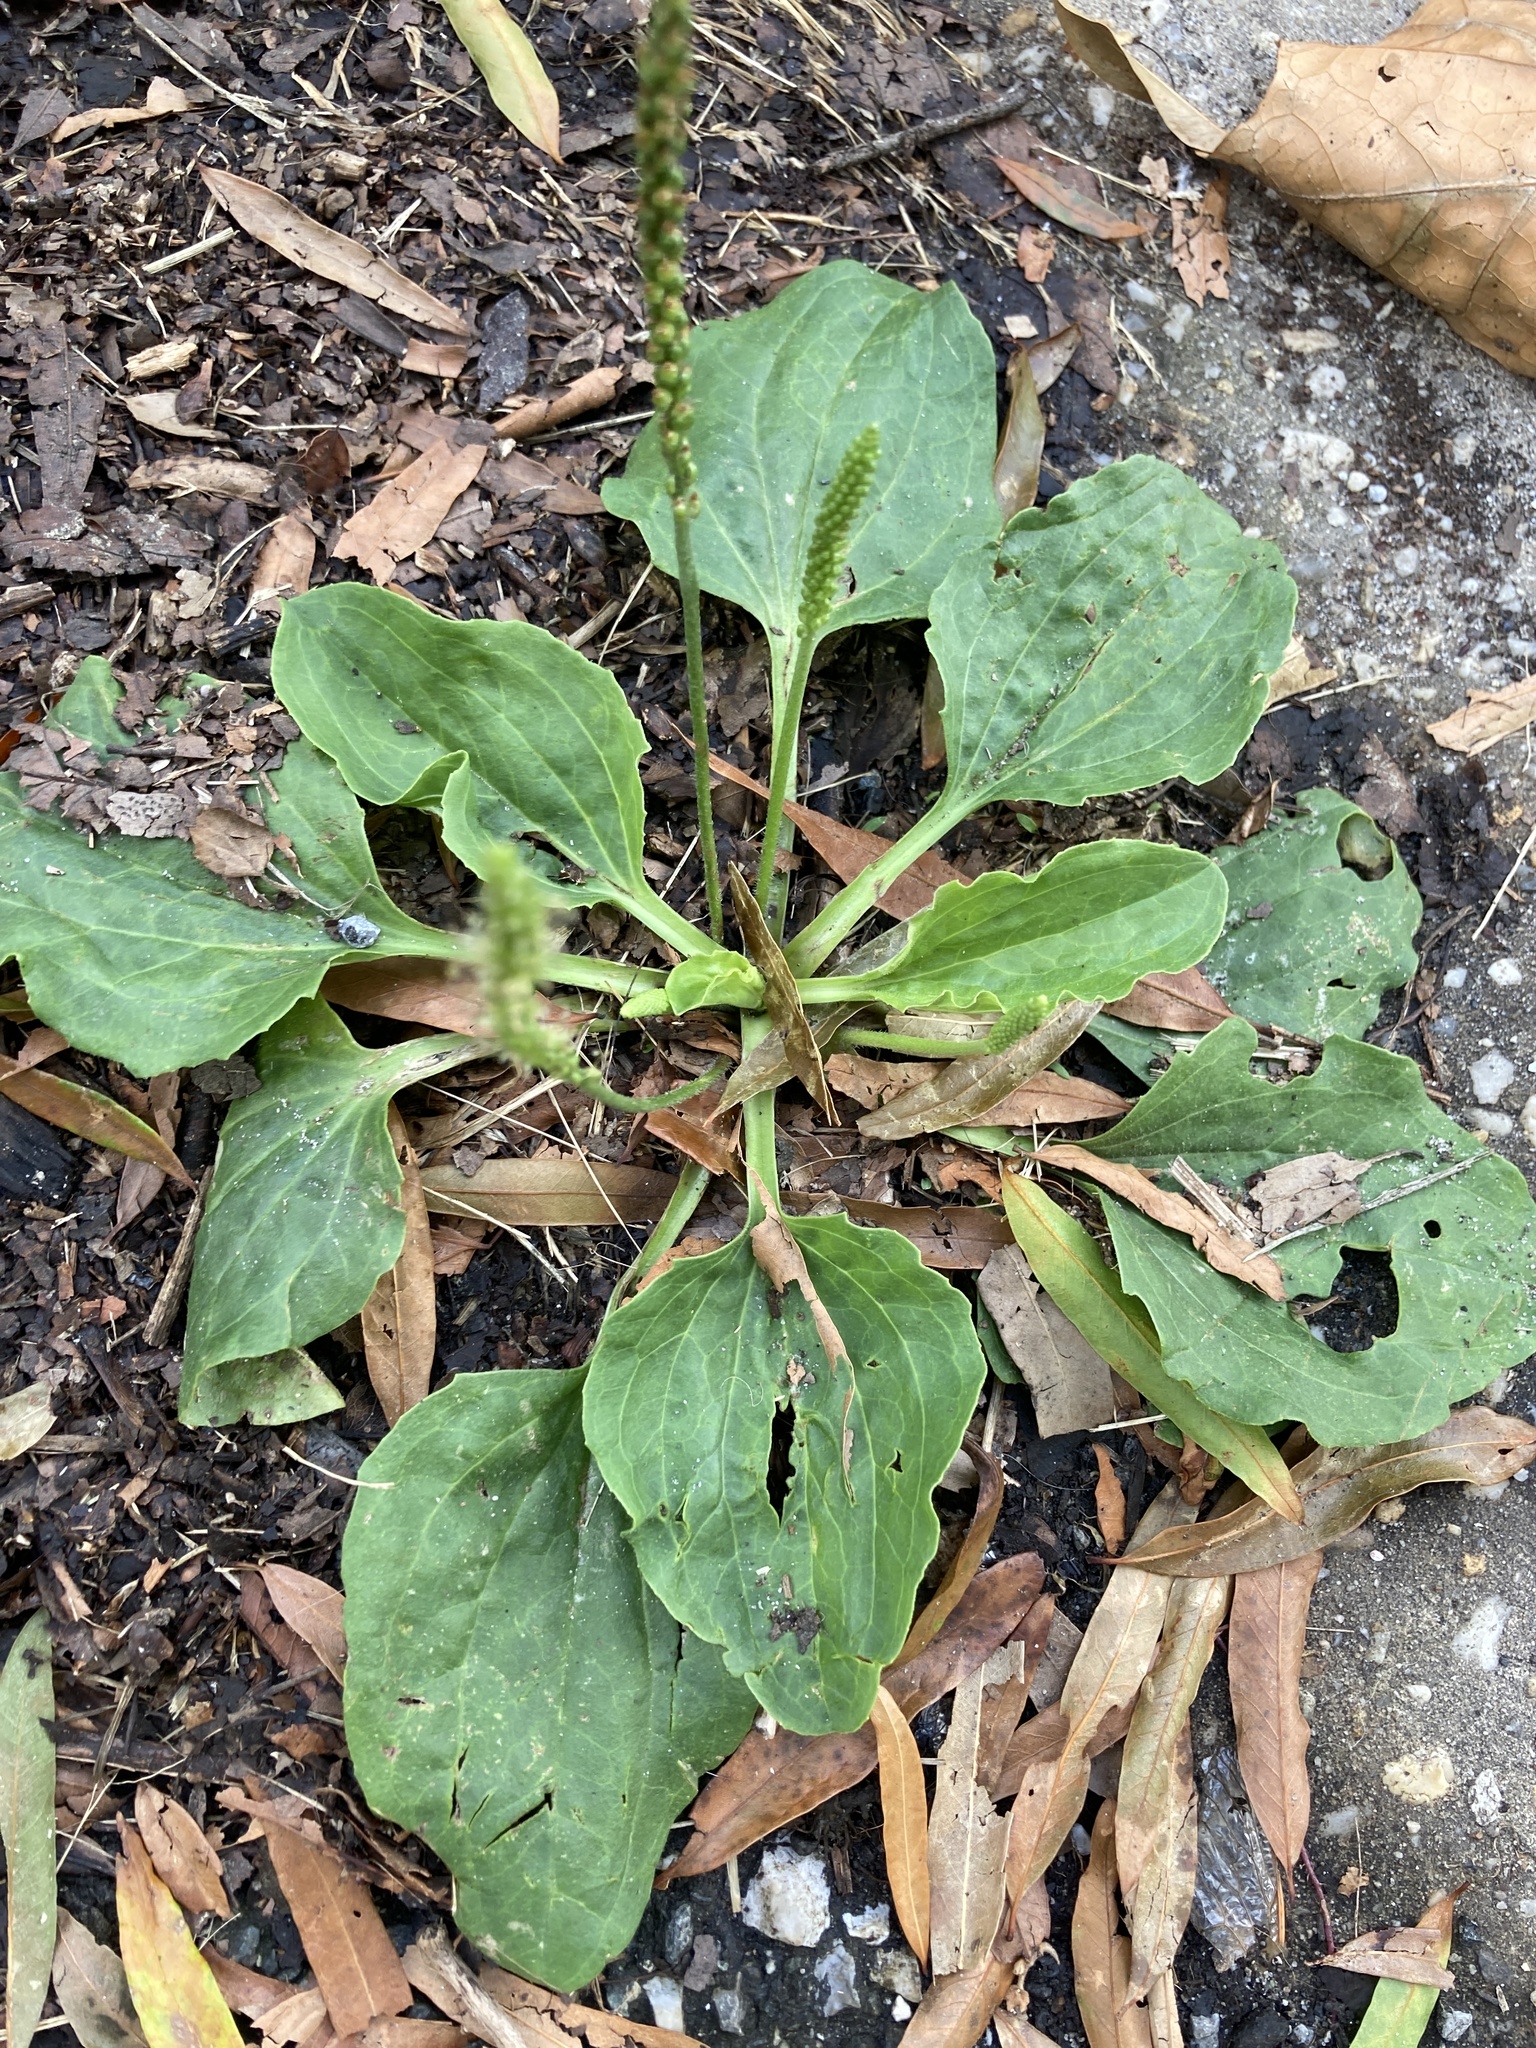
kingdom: Plantae
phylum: Tracheophyta
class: Magnoliopsida
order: Lamiales
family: Plantaginaceae
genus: Plantago
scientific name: Plantago major
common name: Common plantain
